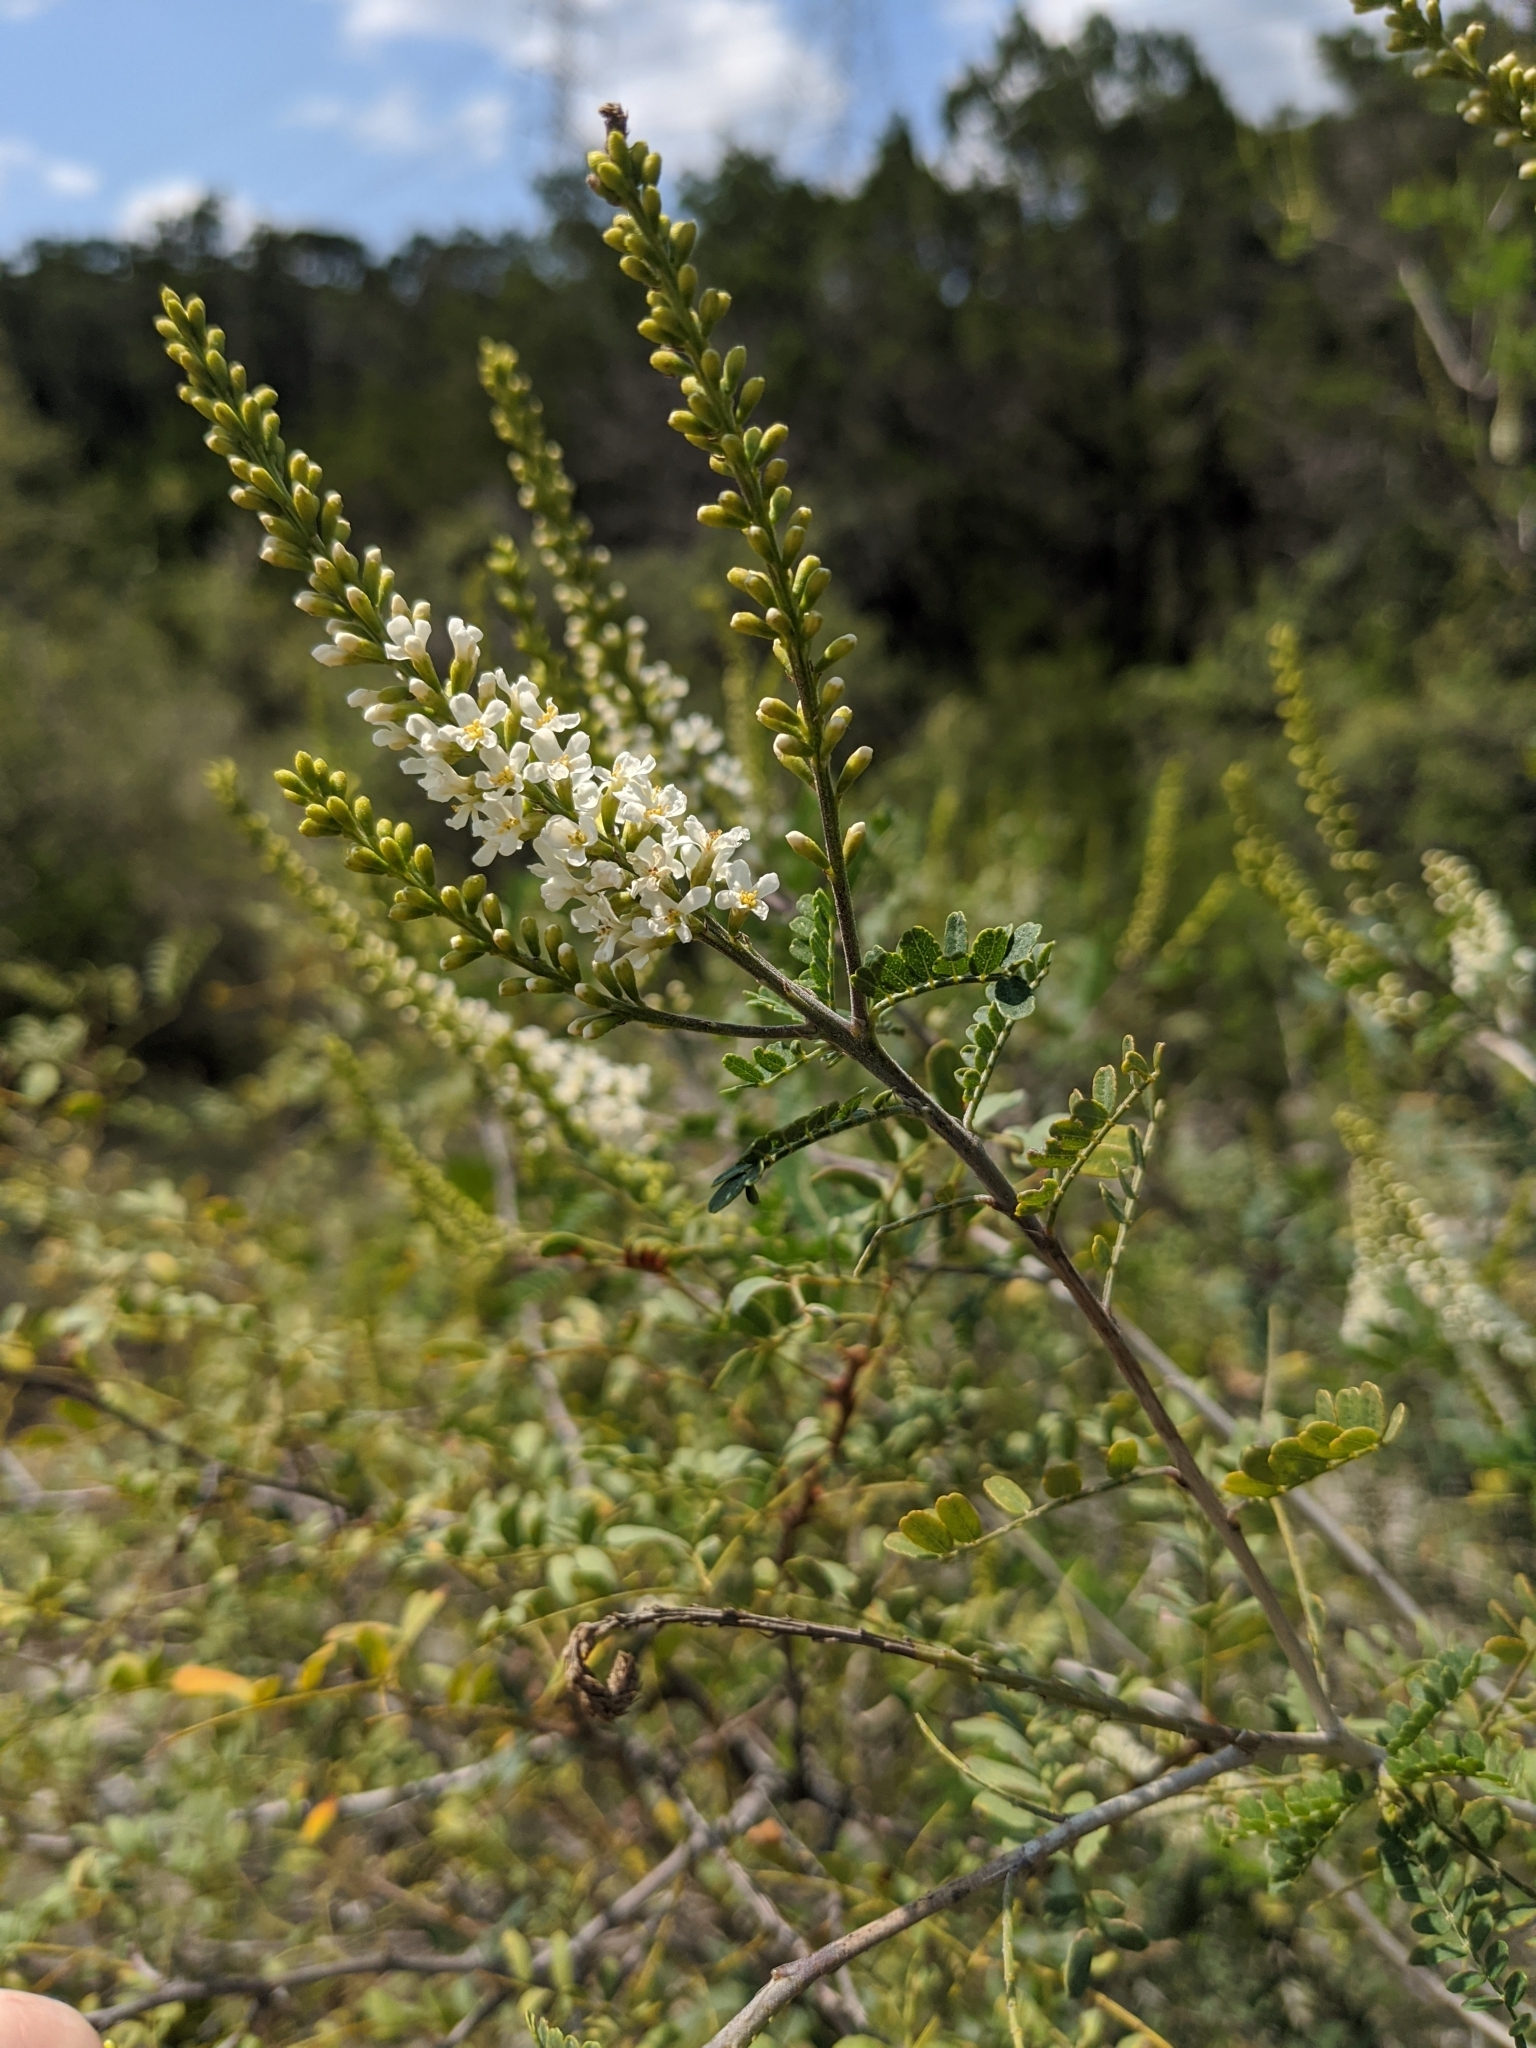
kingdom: Plantae
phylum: Tracheophyta
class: Magnoliopsida
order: Fabales
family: Fabaceae
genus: Eysenhardtia
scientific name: Eysenhardtia texana
